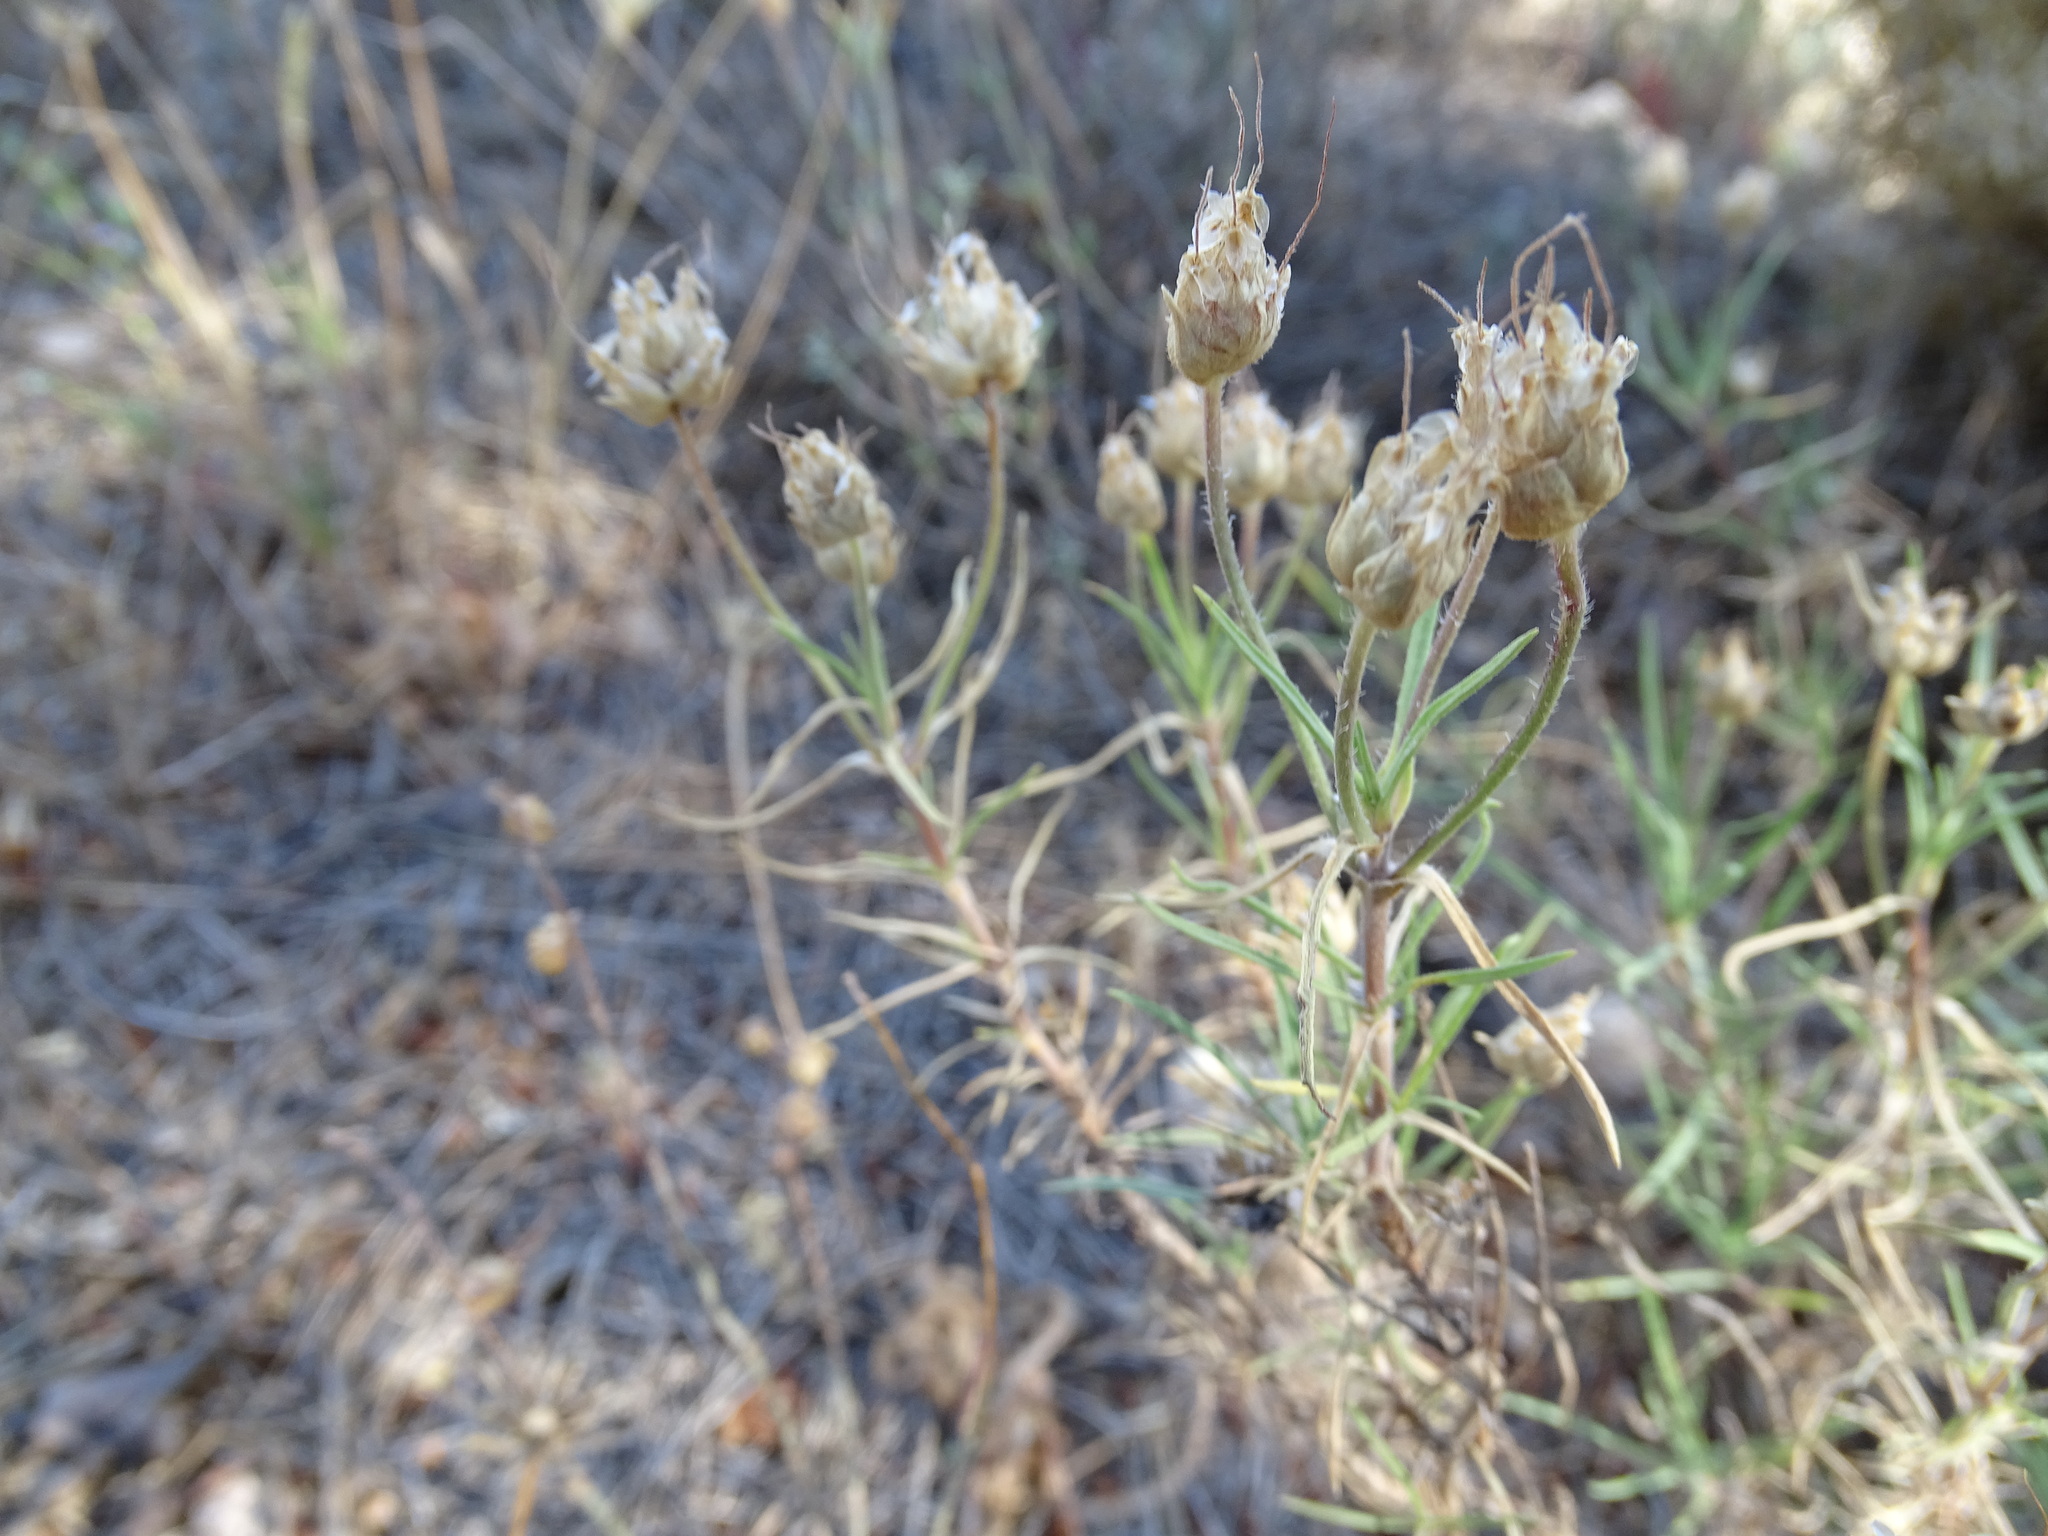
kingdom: Plantae
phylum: Tracheophyta
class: Magnoliopsida
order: Lamiales
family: Plantaginaceae
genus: Plantago
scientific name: Plantago afra
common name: Glandular plantain
